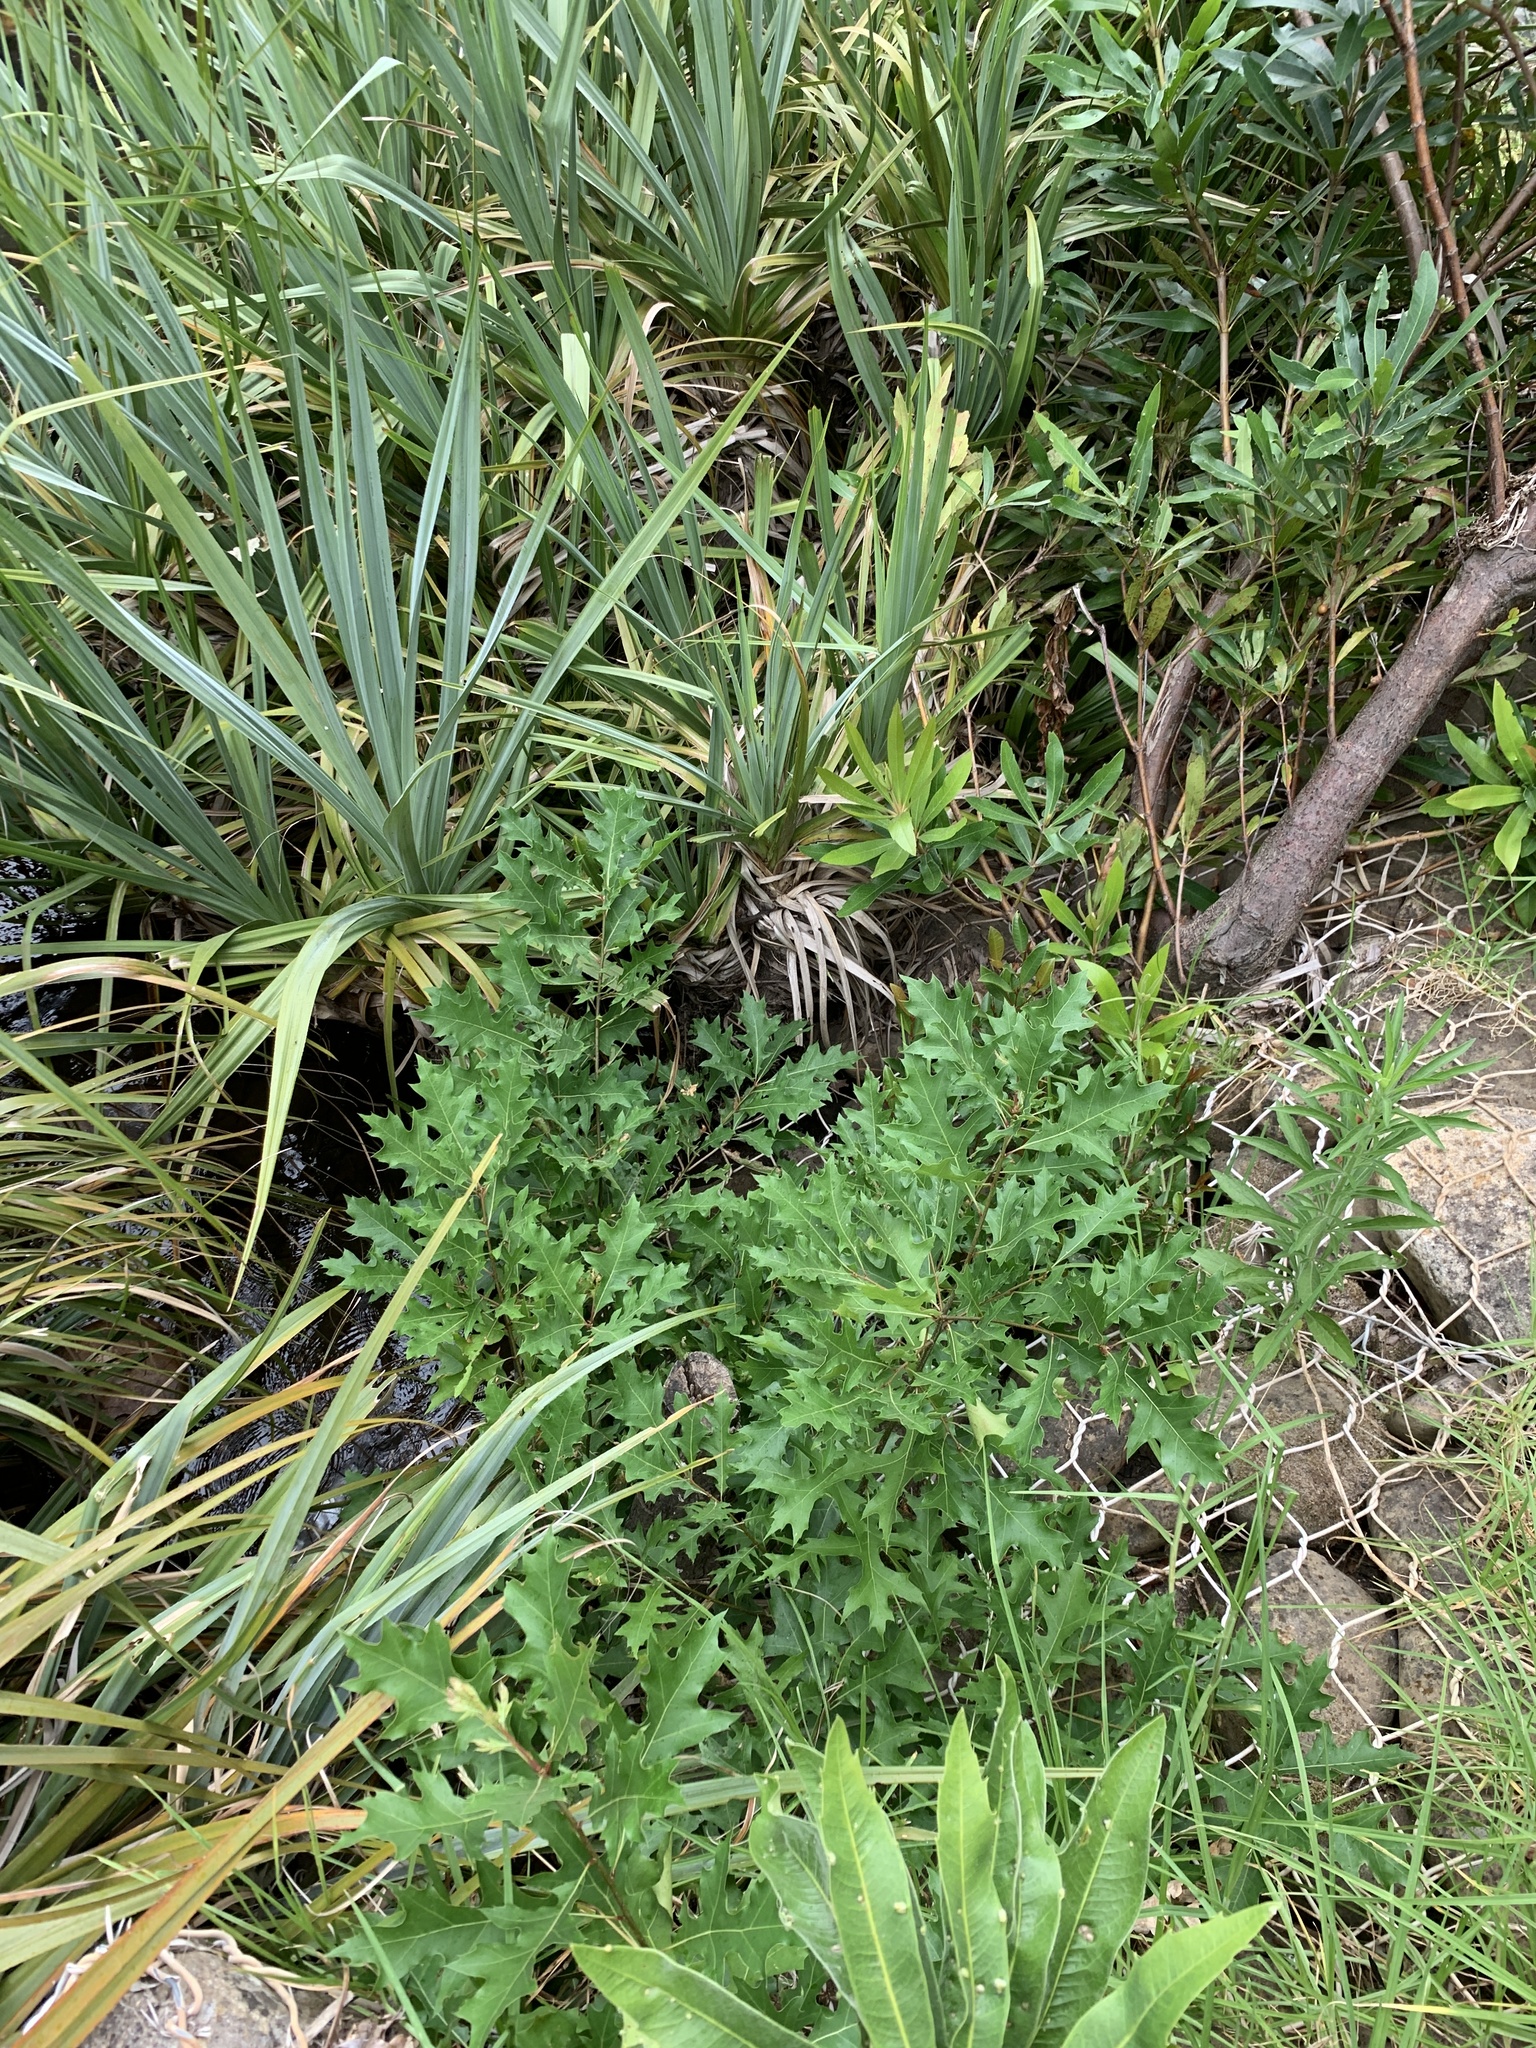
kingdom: Plantae
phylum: Tracheophyta
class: Magnoliopsida
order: Fagales
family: Fagaceae
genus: Quercus
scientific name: Quercus palustris
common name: Pin oak
